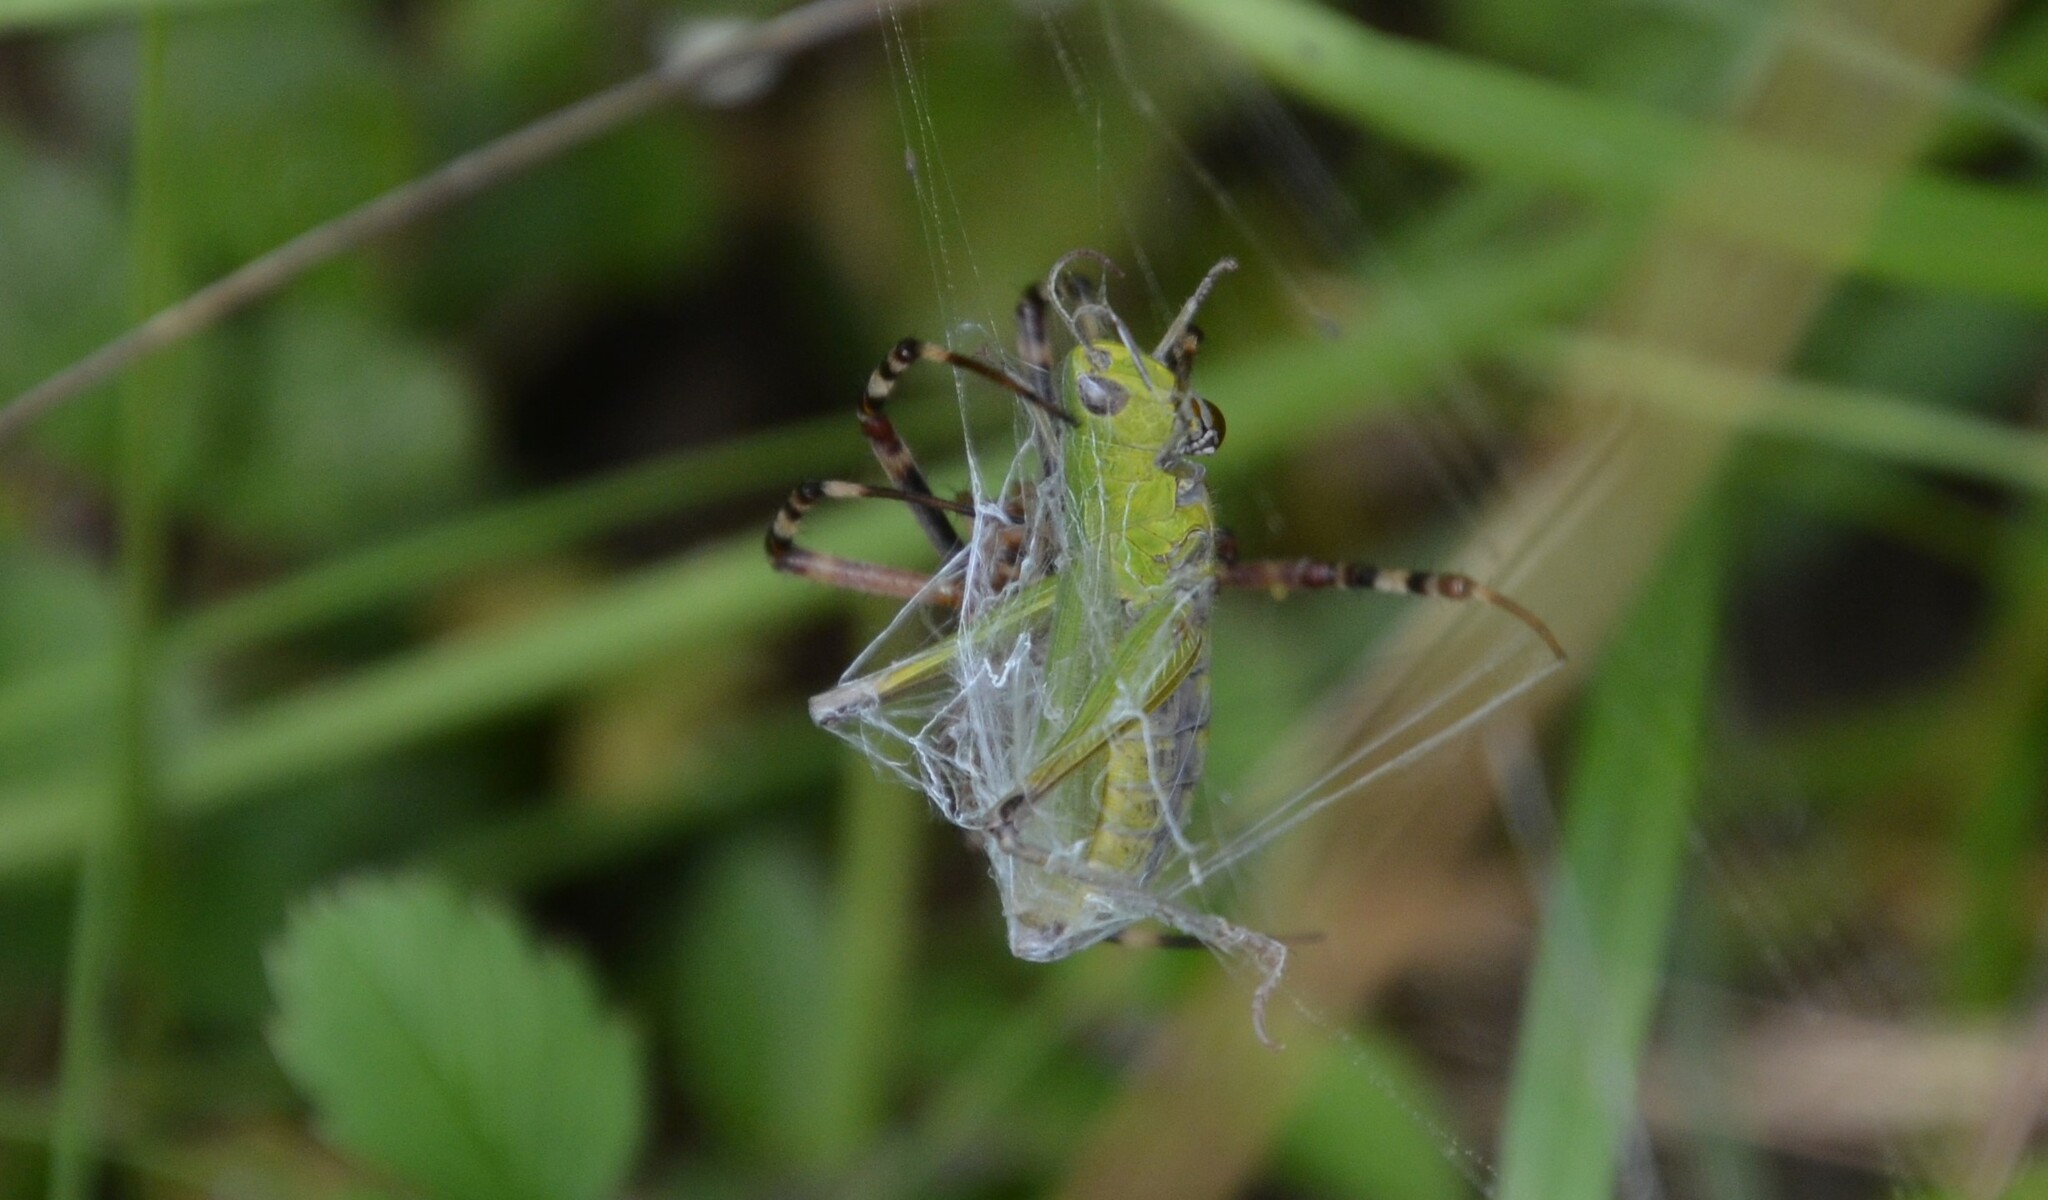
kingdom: Animalia
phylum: Arthropoda
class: Arachnida
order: Araneae
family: Araneidae
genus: Argiope
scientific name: Argiope bruennichi
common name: Wasp spider
